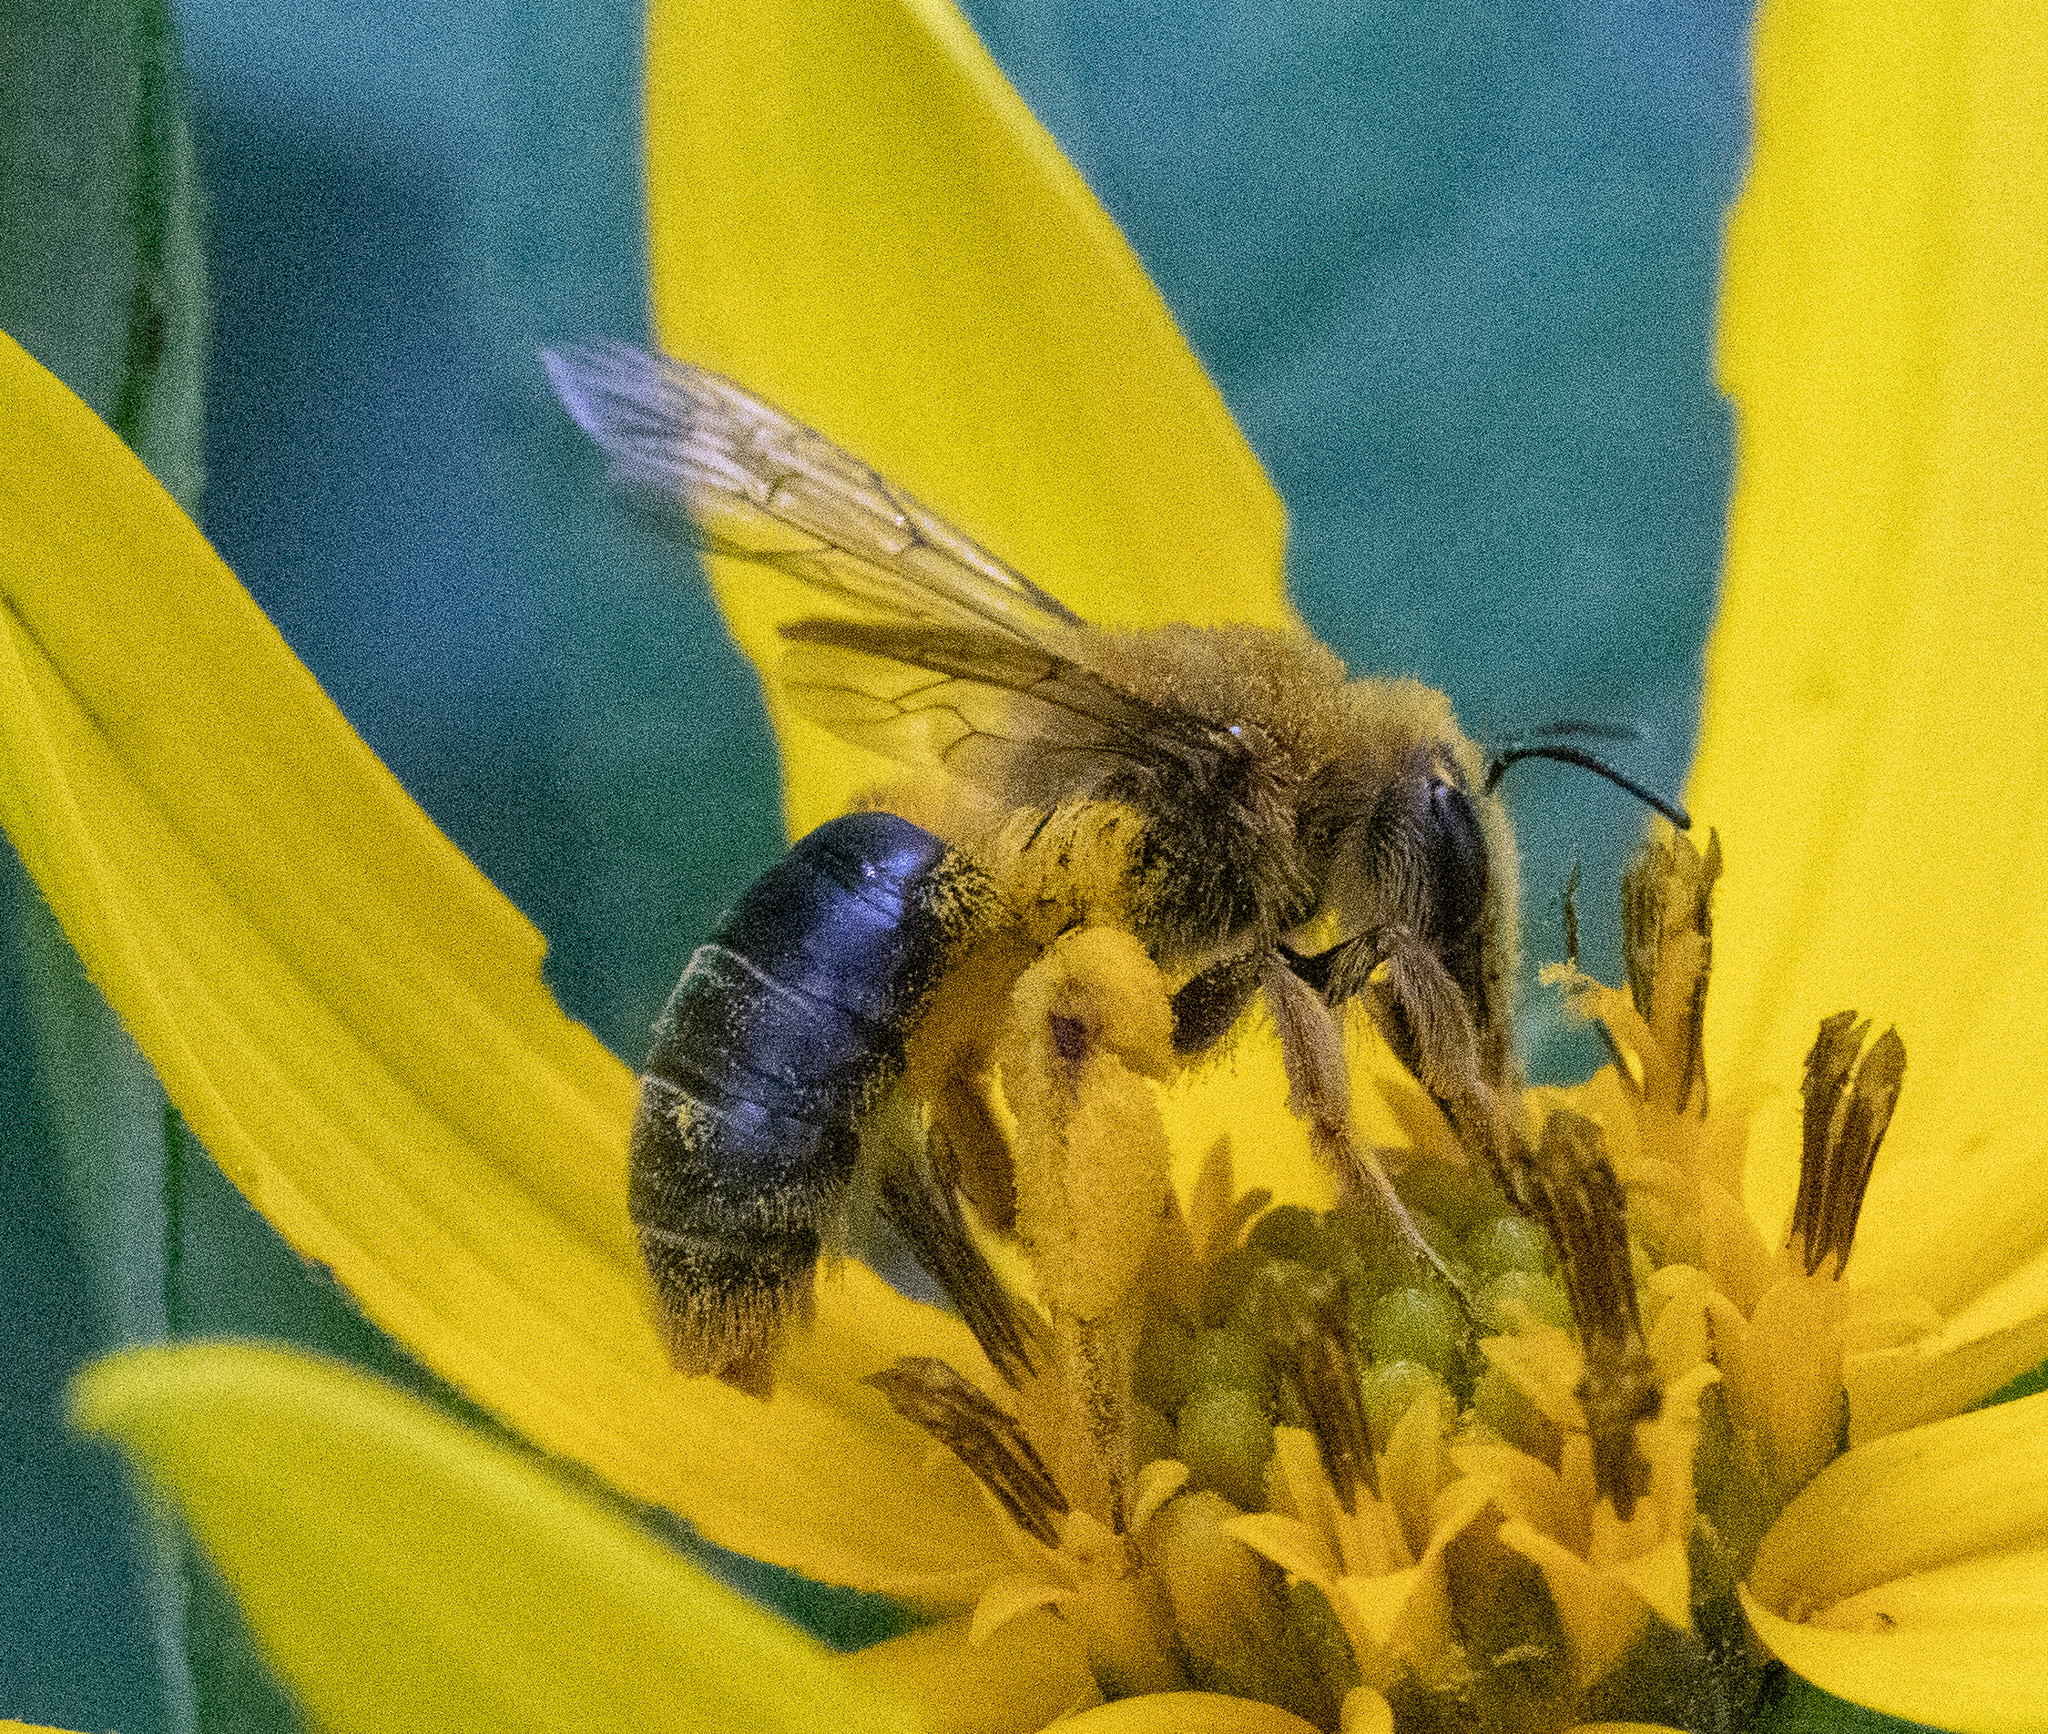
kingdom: Animalia
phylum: Arthropoda
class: Insecta
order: Hymenoptera
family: Andrenidae
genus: Andrena
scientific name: Andrena helianthi
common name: Sunflower mining bee
